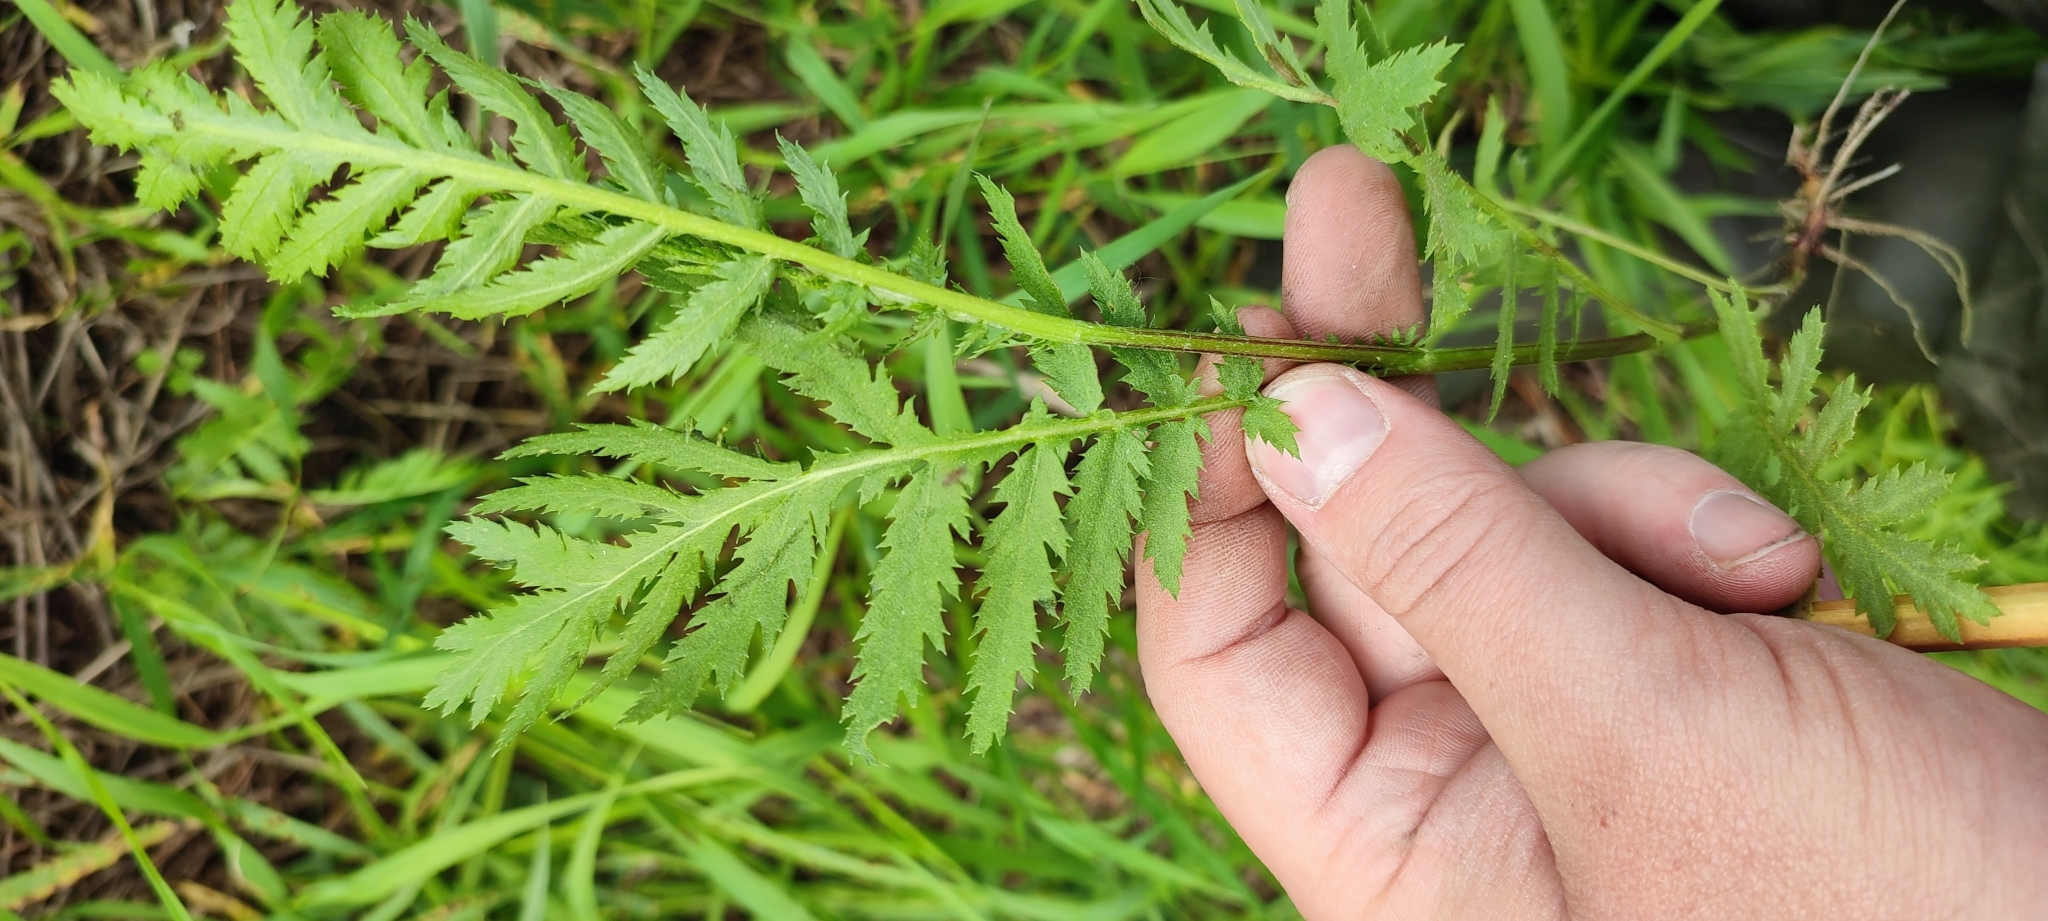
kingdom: Plantae
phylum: Tracheophyta
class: Magnoliopsida
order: Asterales
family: Asteraceae
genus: Tanacetum
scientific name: Tanacetum vulgare
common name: Common tansy
